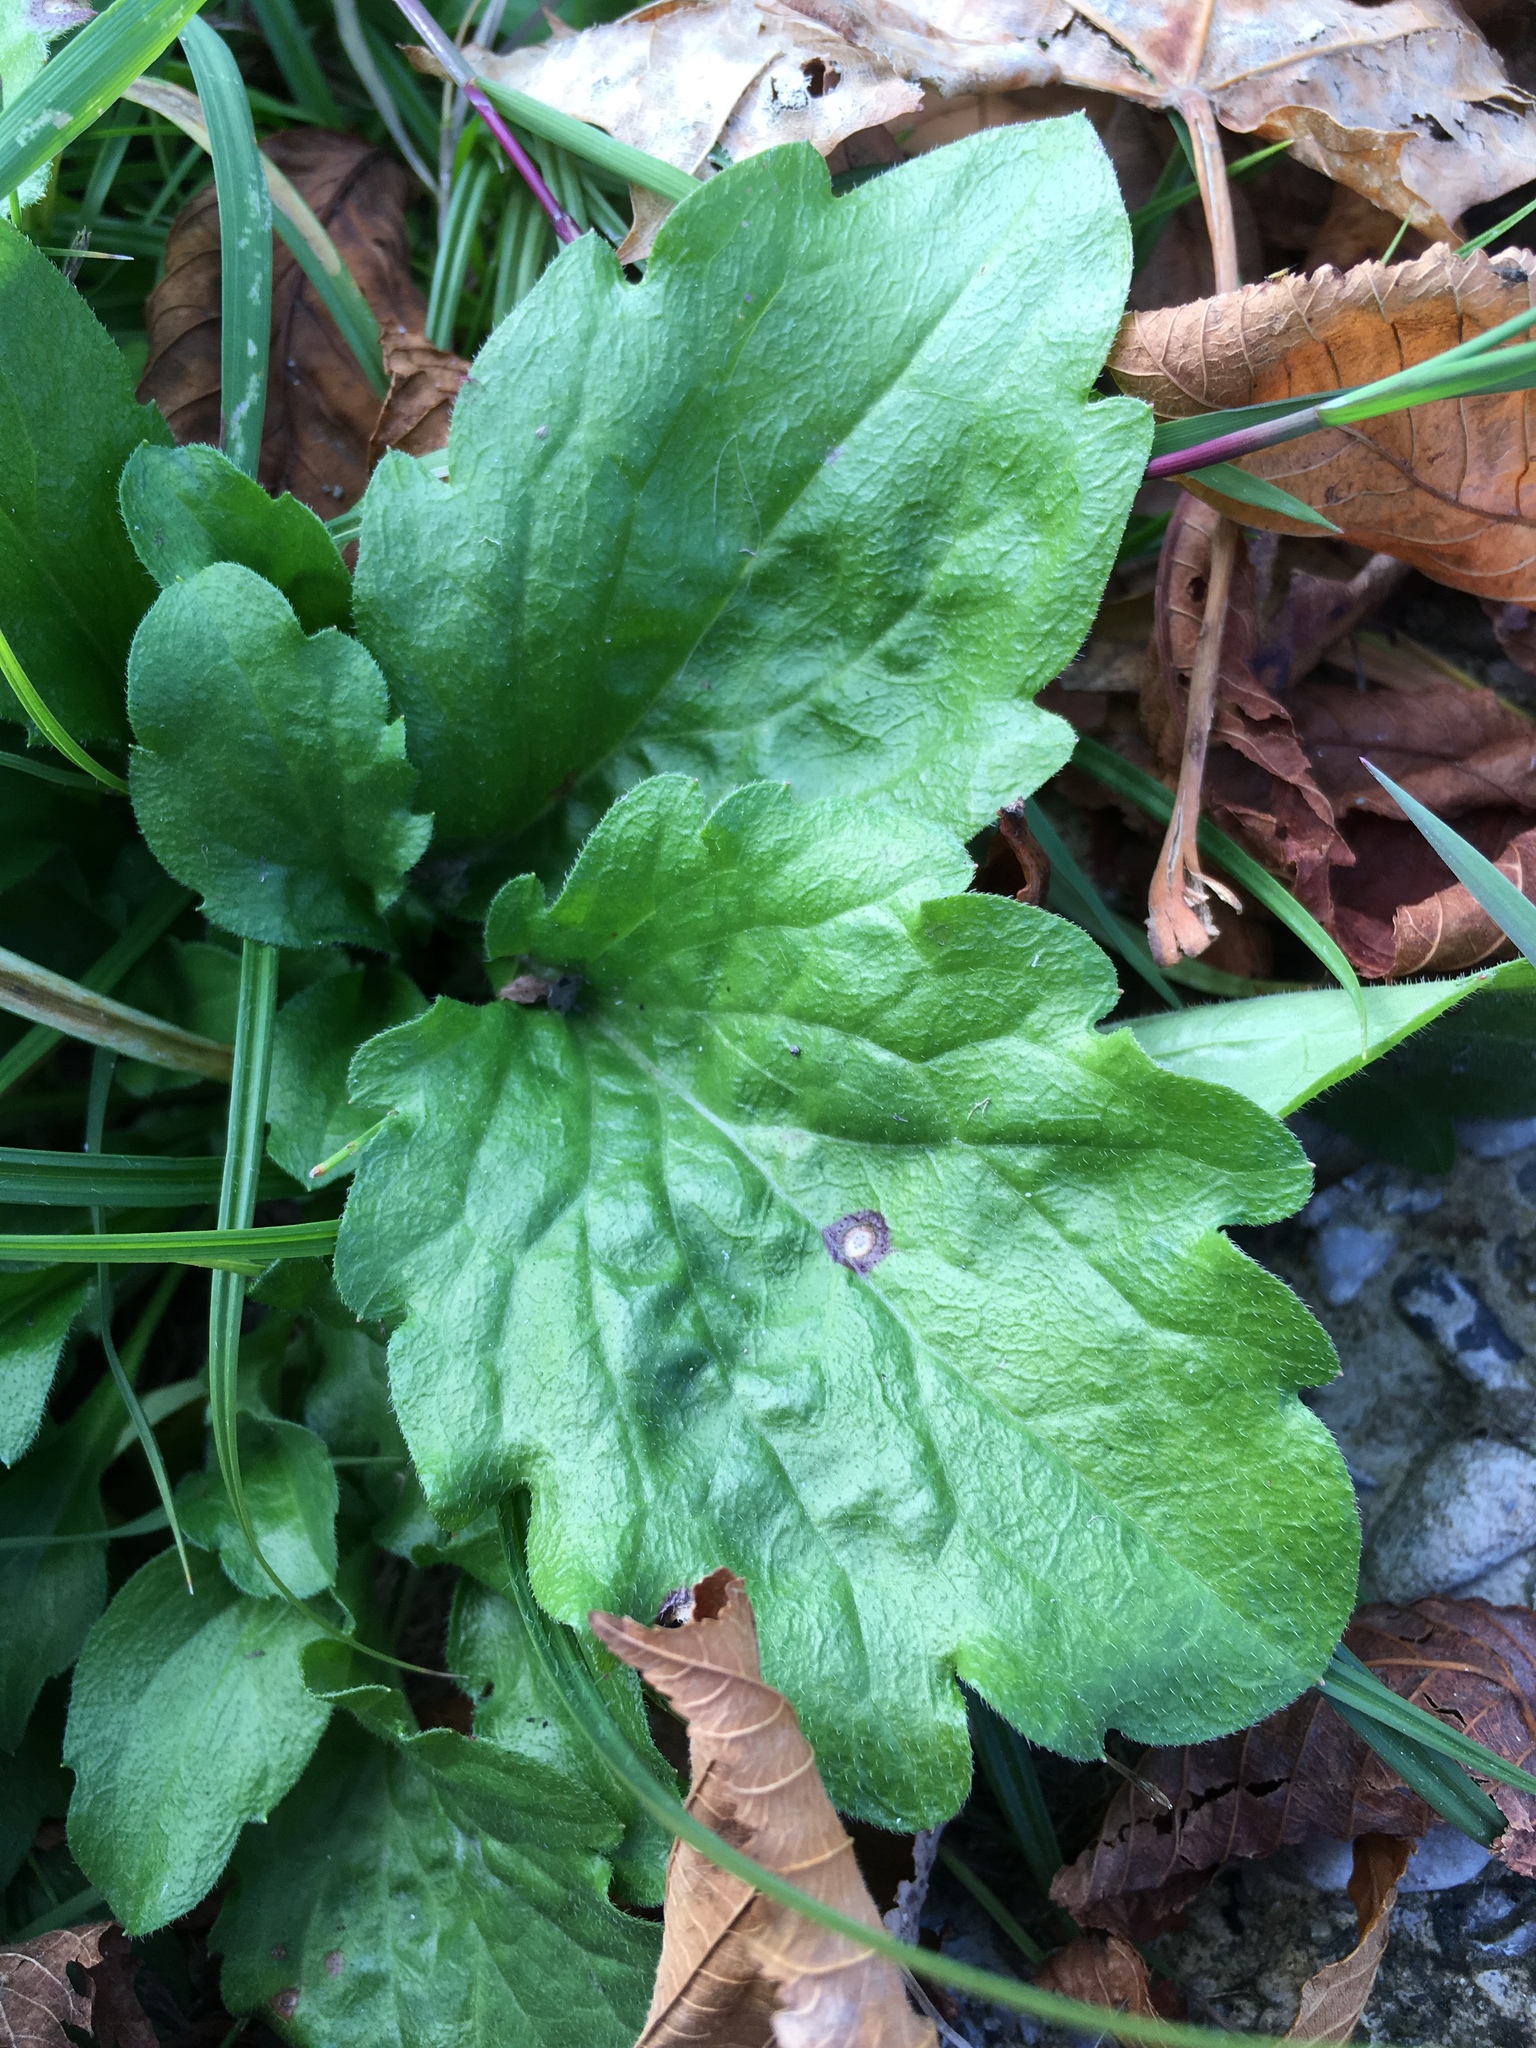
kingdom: Plantae
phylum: Tracheophyta
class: Magnoliopsida
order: Asterales
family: Asteraceae
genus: Erigeron
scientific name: Erigeron annuus
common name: Tall fleabane
